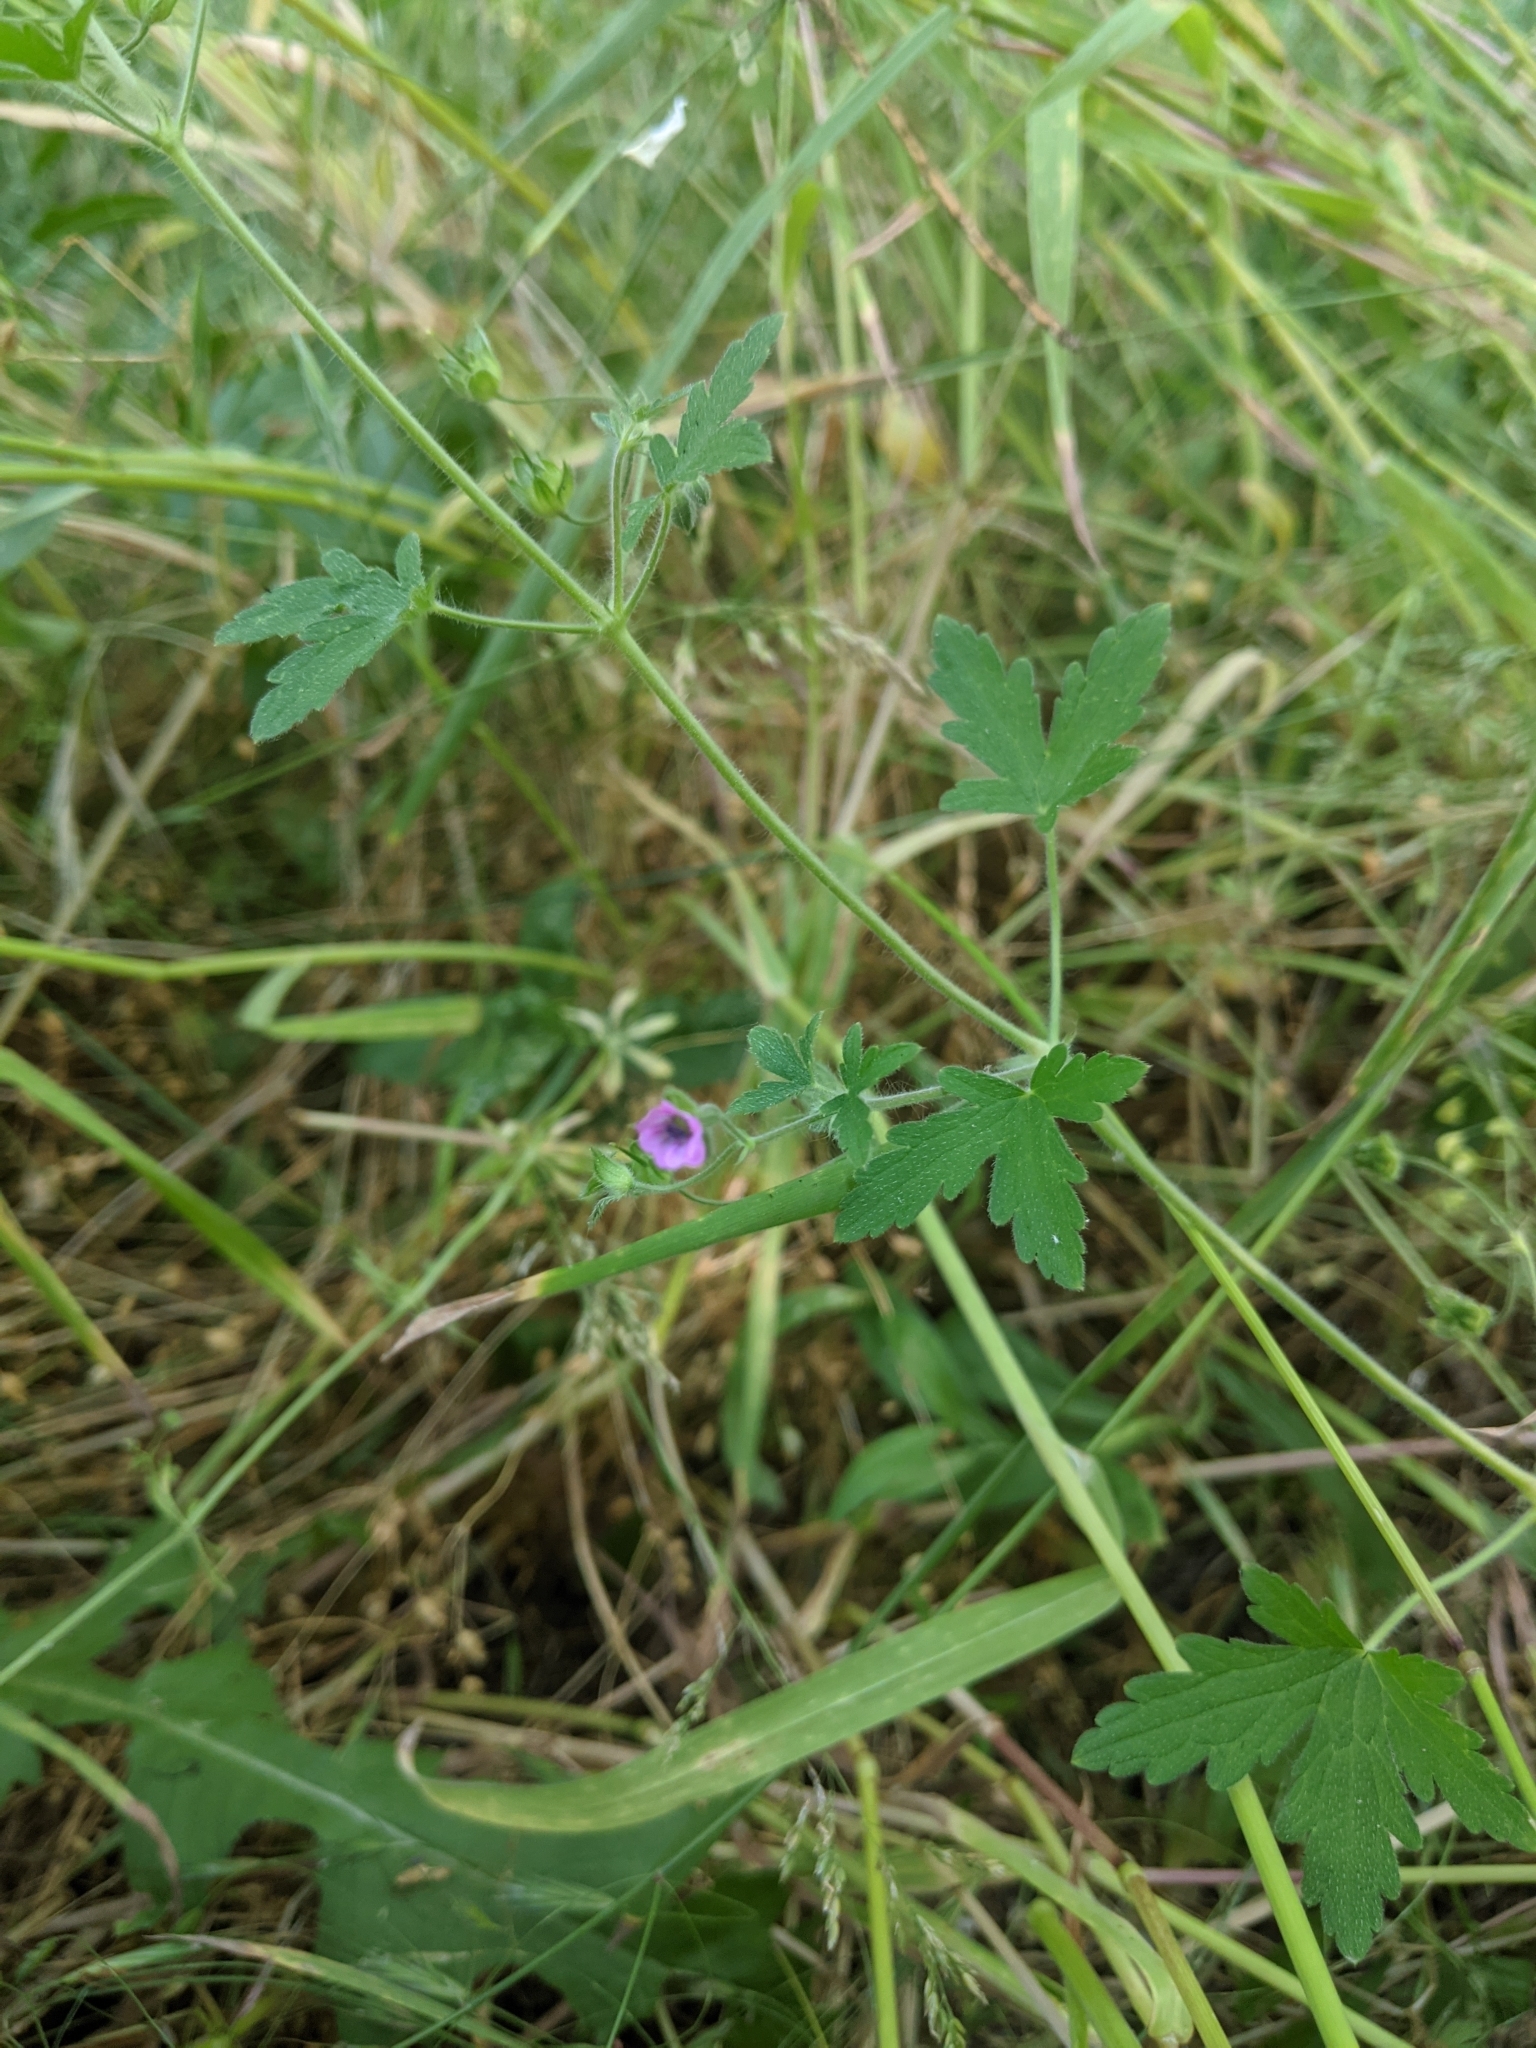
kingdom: Plantae
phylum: Tracheophyta
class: Magnoliopsida
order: Geraniales
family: Geraniaceae
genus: Geranium
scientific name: Geranium divaricatum
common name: Spreading crane's-bill
